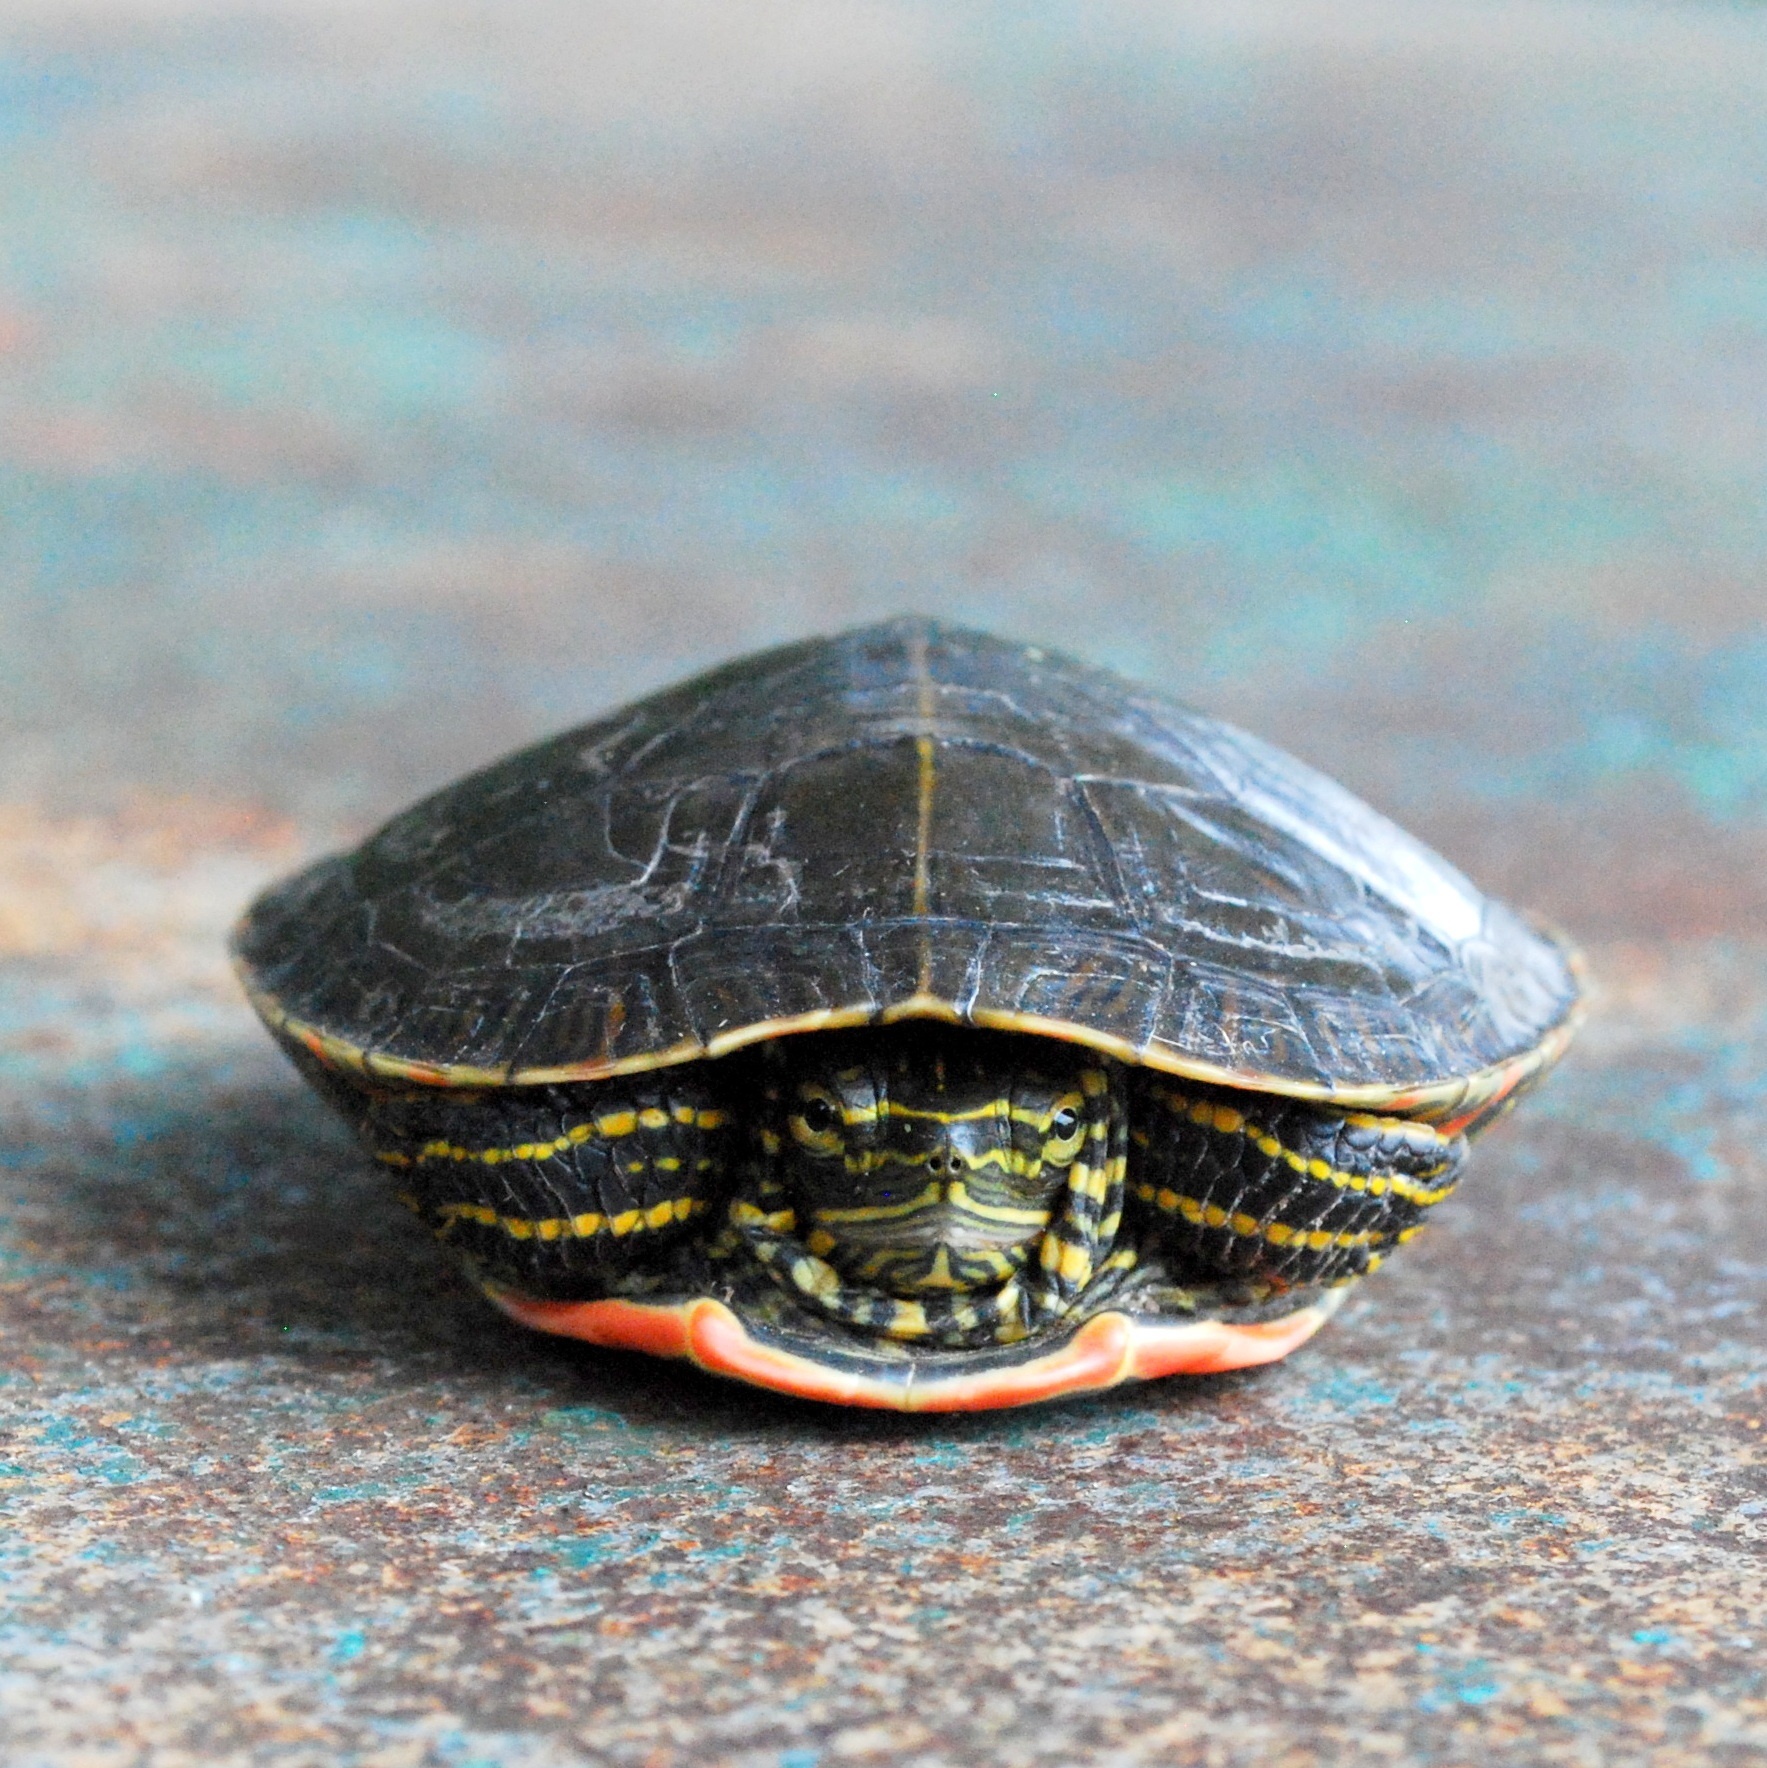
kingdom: Animalia
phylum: Chordata
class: Testudines
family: Emydidae
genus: Chrysemys
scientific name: Chrysemys picta
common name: Painted turtle
